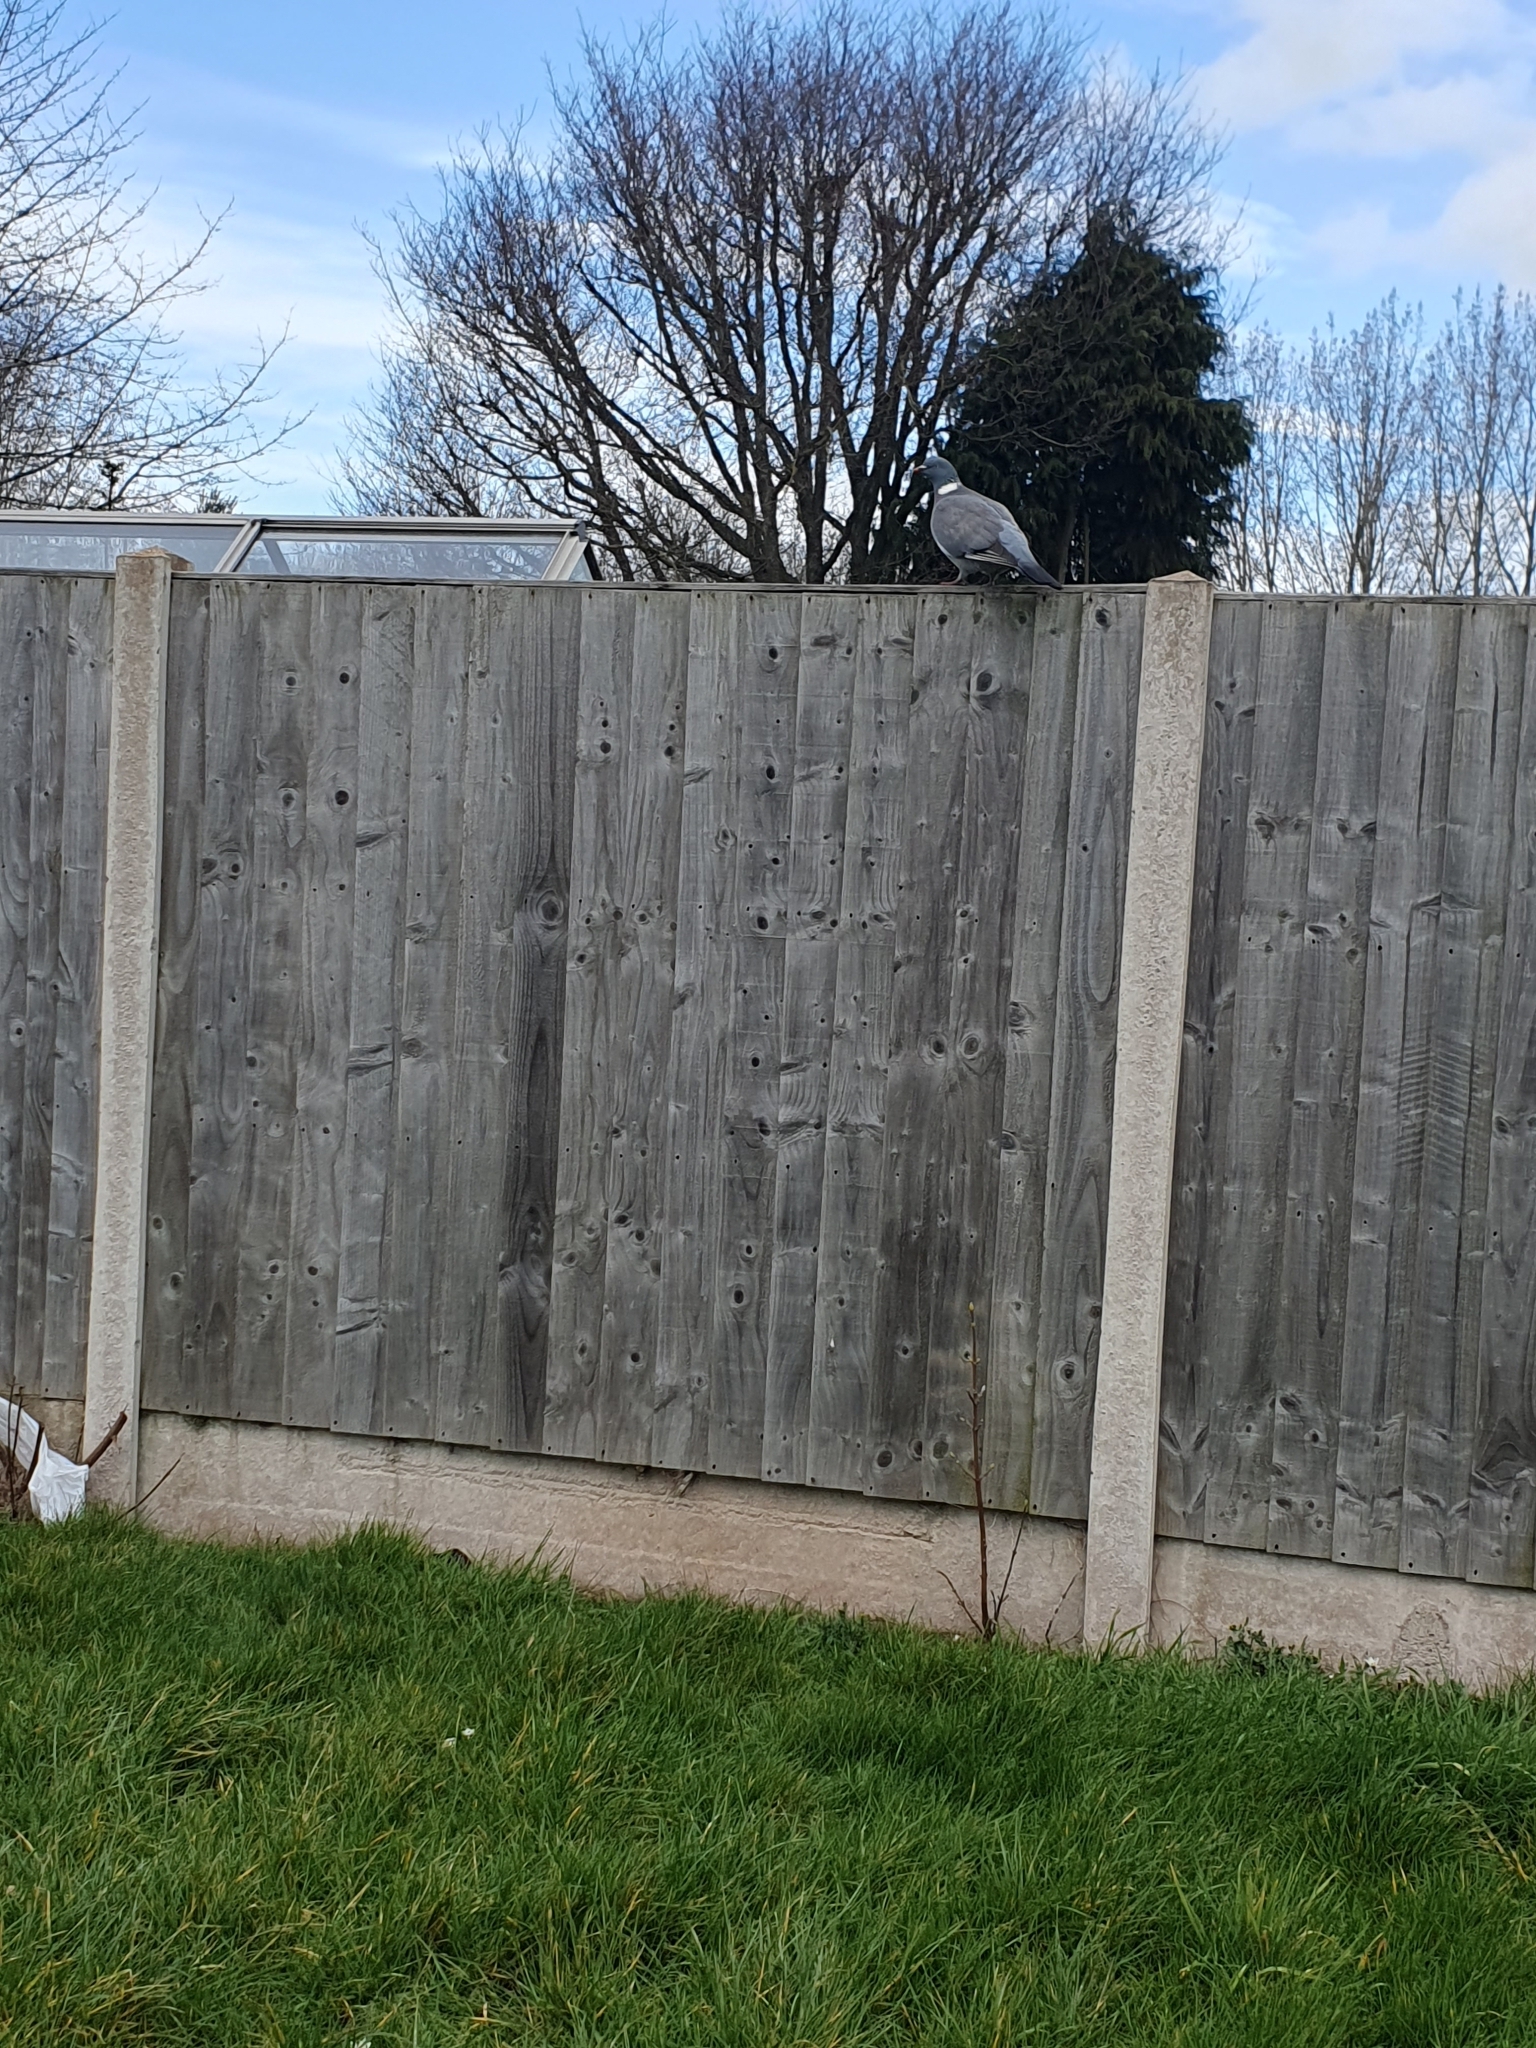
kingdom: Animalia
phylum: Chordata
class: Aves
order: Columbiformes
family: Columbidae
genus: Columba
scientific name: Columba palumbus
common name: Common wood pigeon
